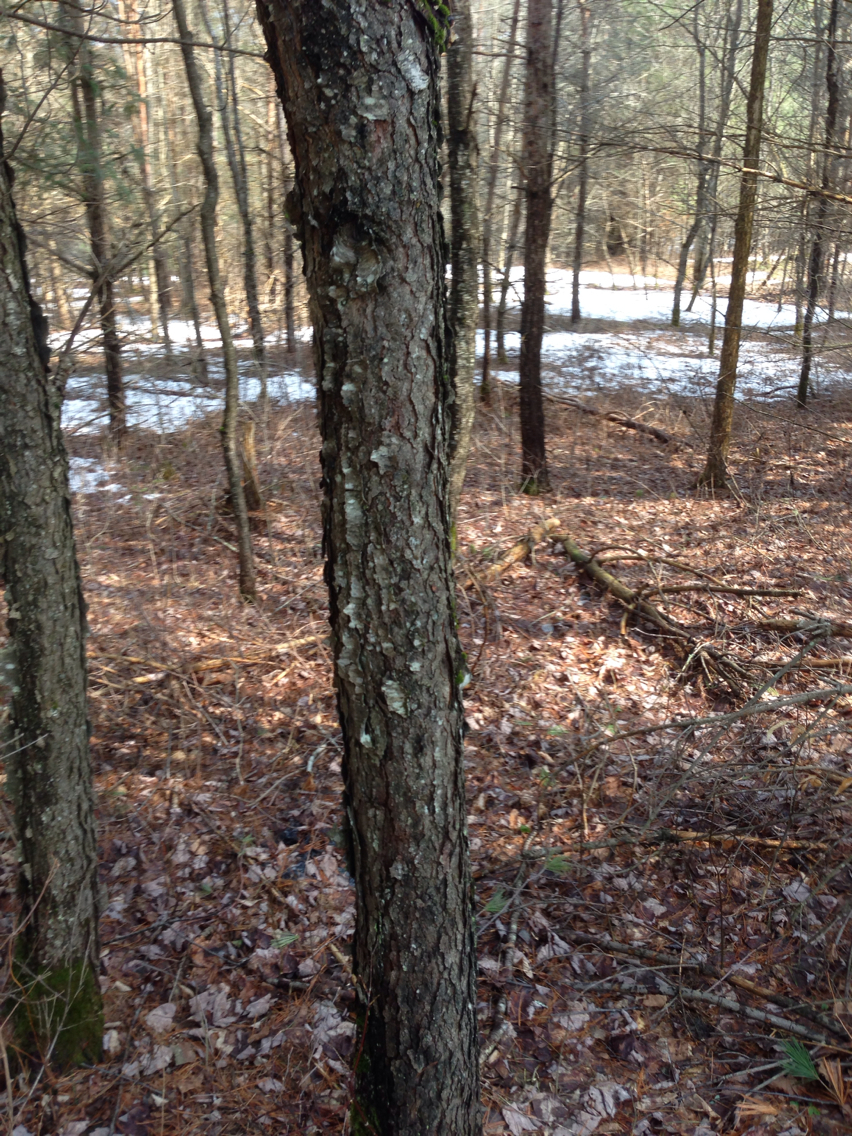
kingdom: Plantae
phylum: Tracheophyta
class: Magnoliopsida
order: Rosales
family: Rosaceae
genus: Prunus
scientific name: Prunus serotina
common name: Black cherry
